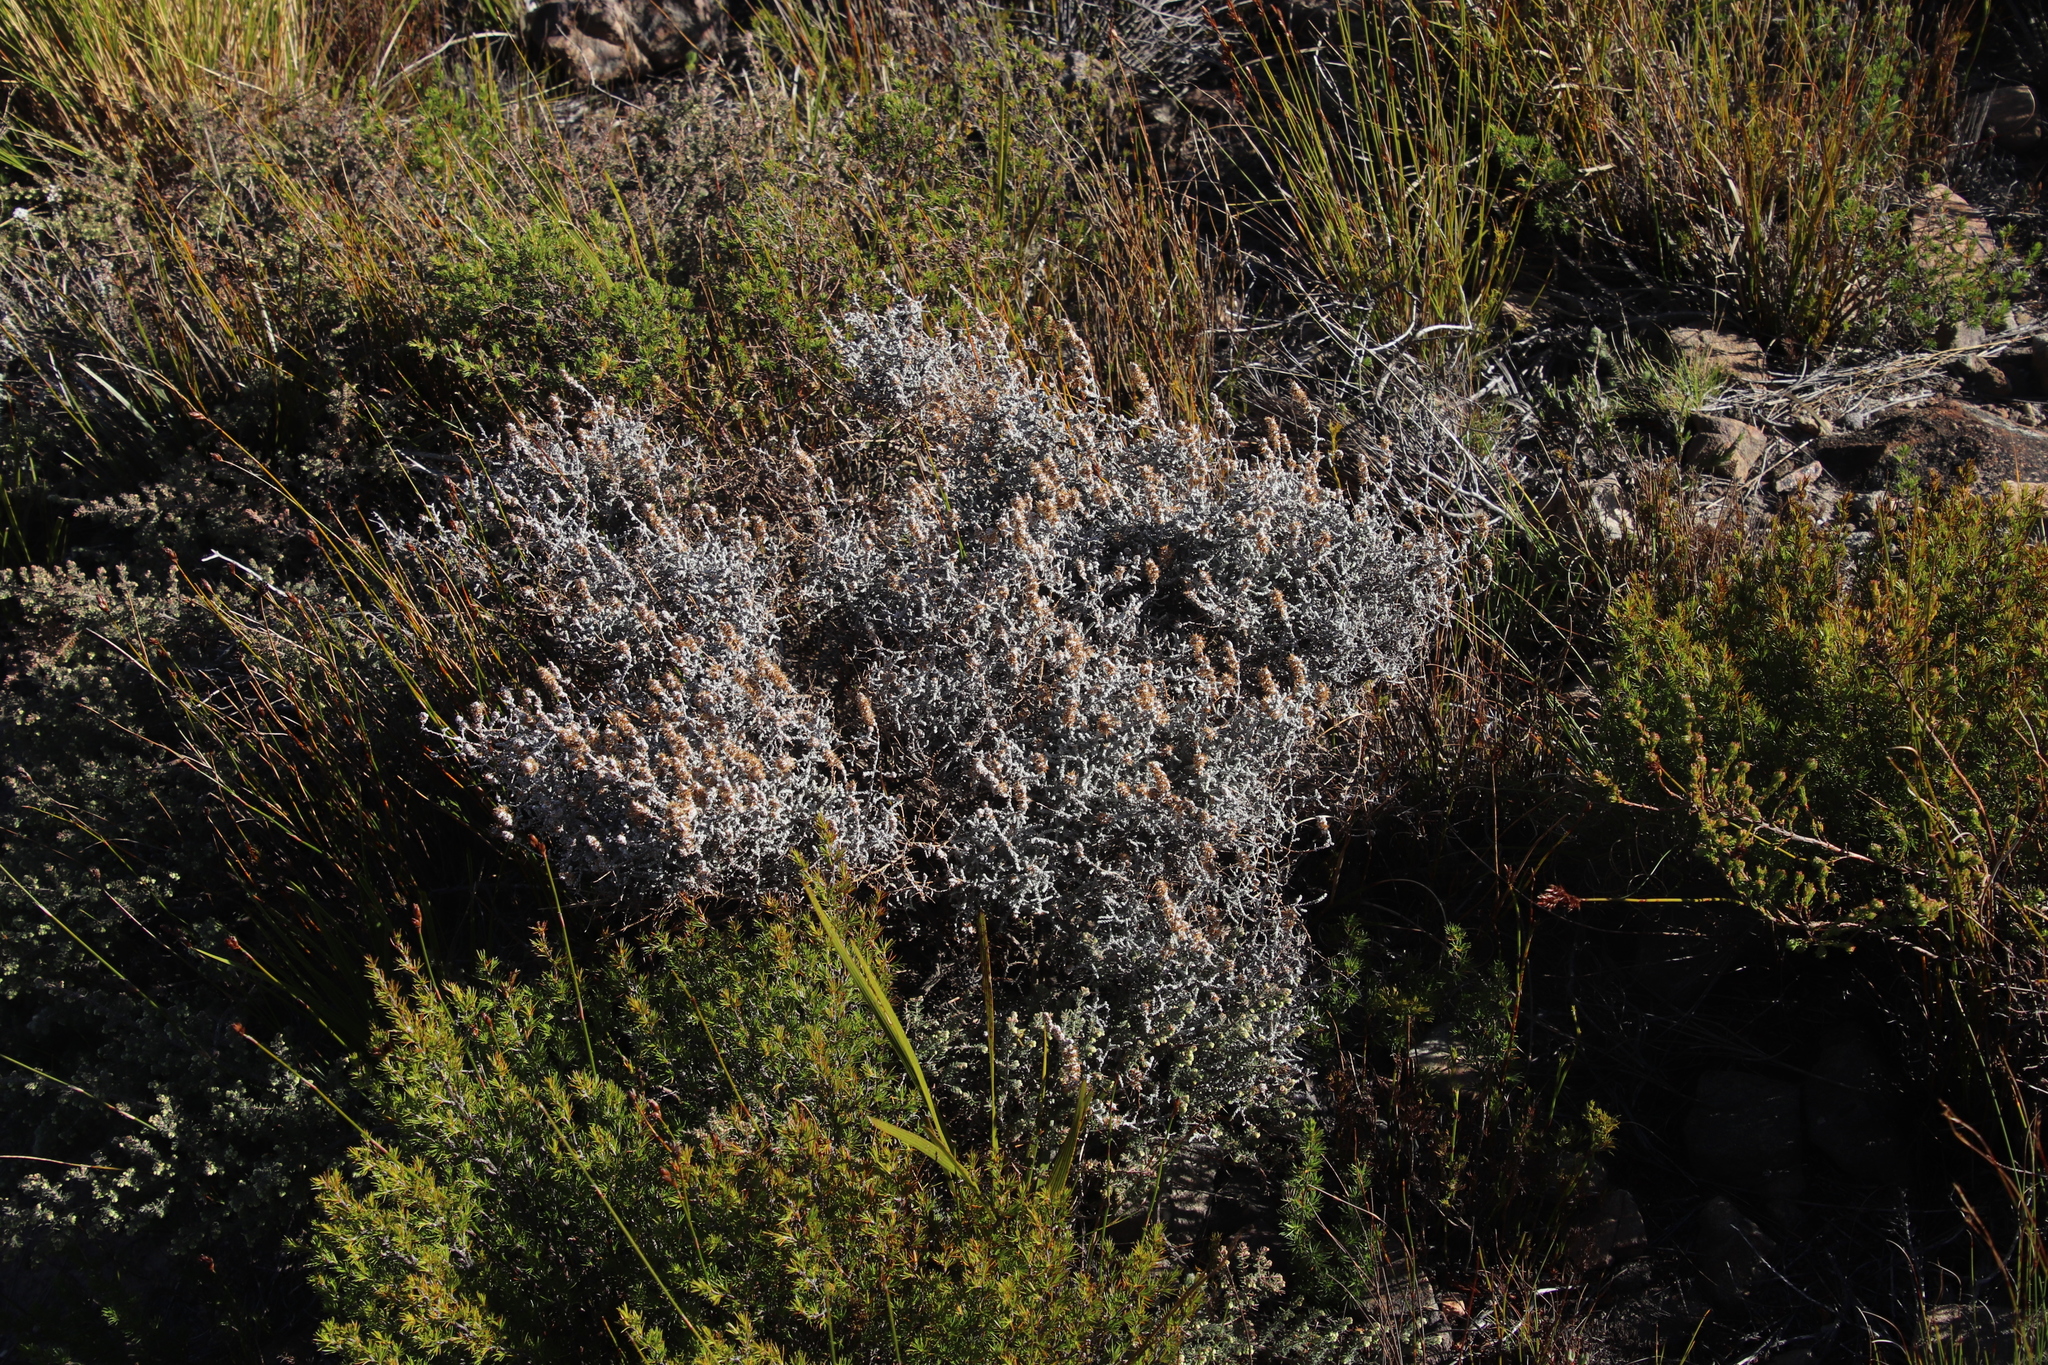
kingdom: Plantae
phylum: Tracheophyta
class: Magnoliopsida
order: Asterales
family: Asteraceae
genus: Seriphium
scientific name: Seriphium plumosum
